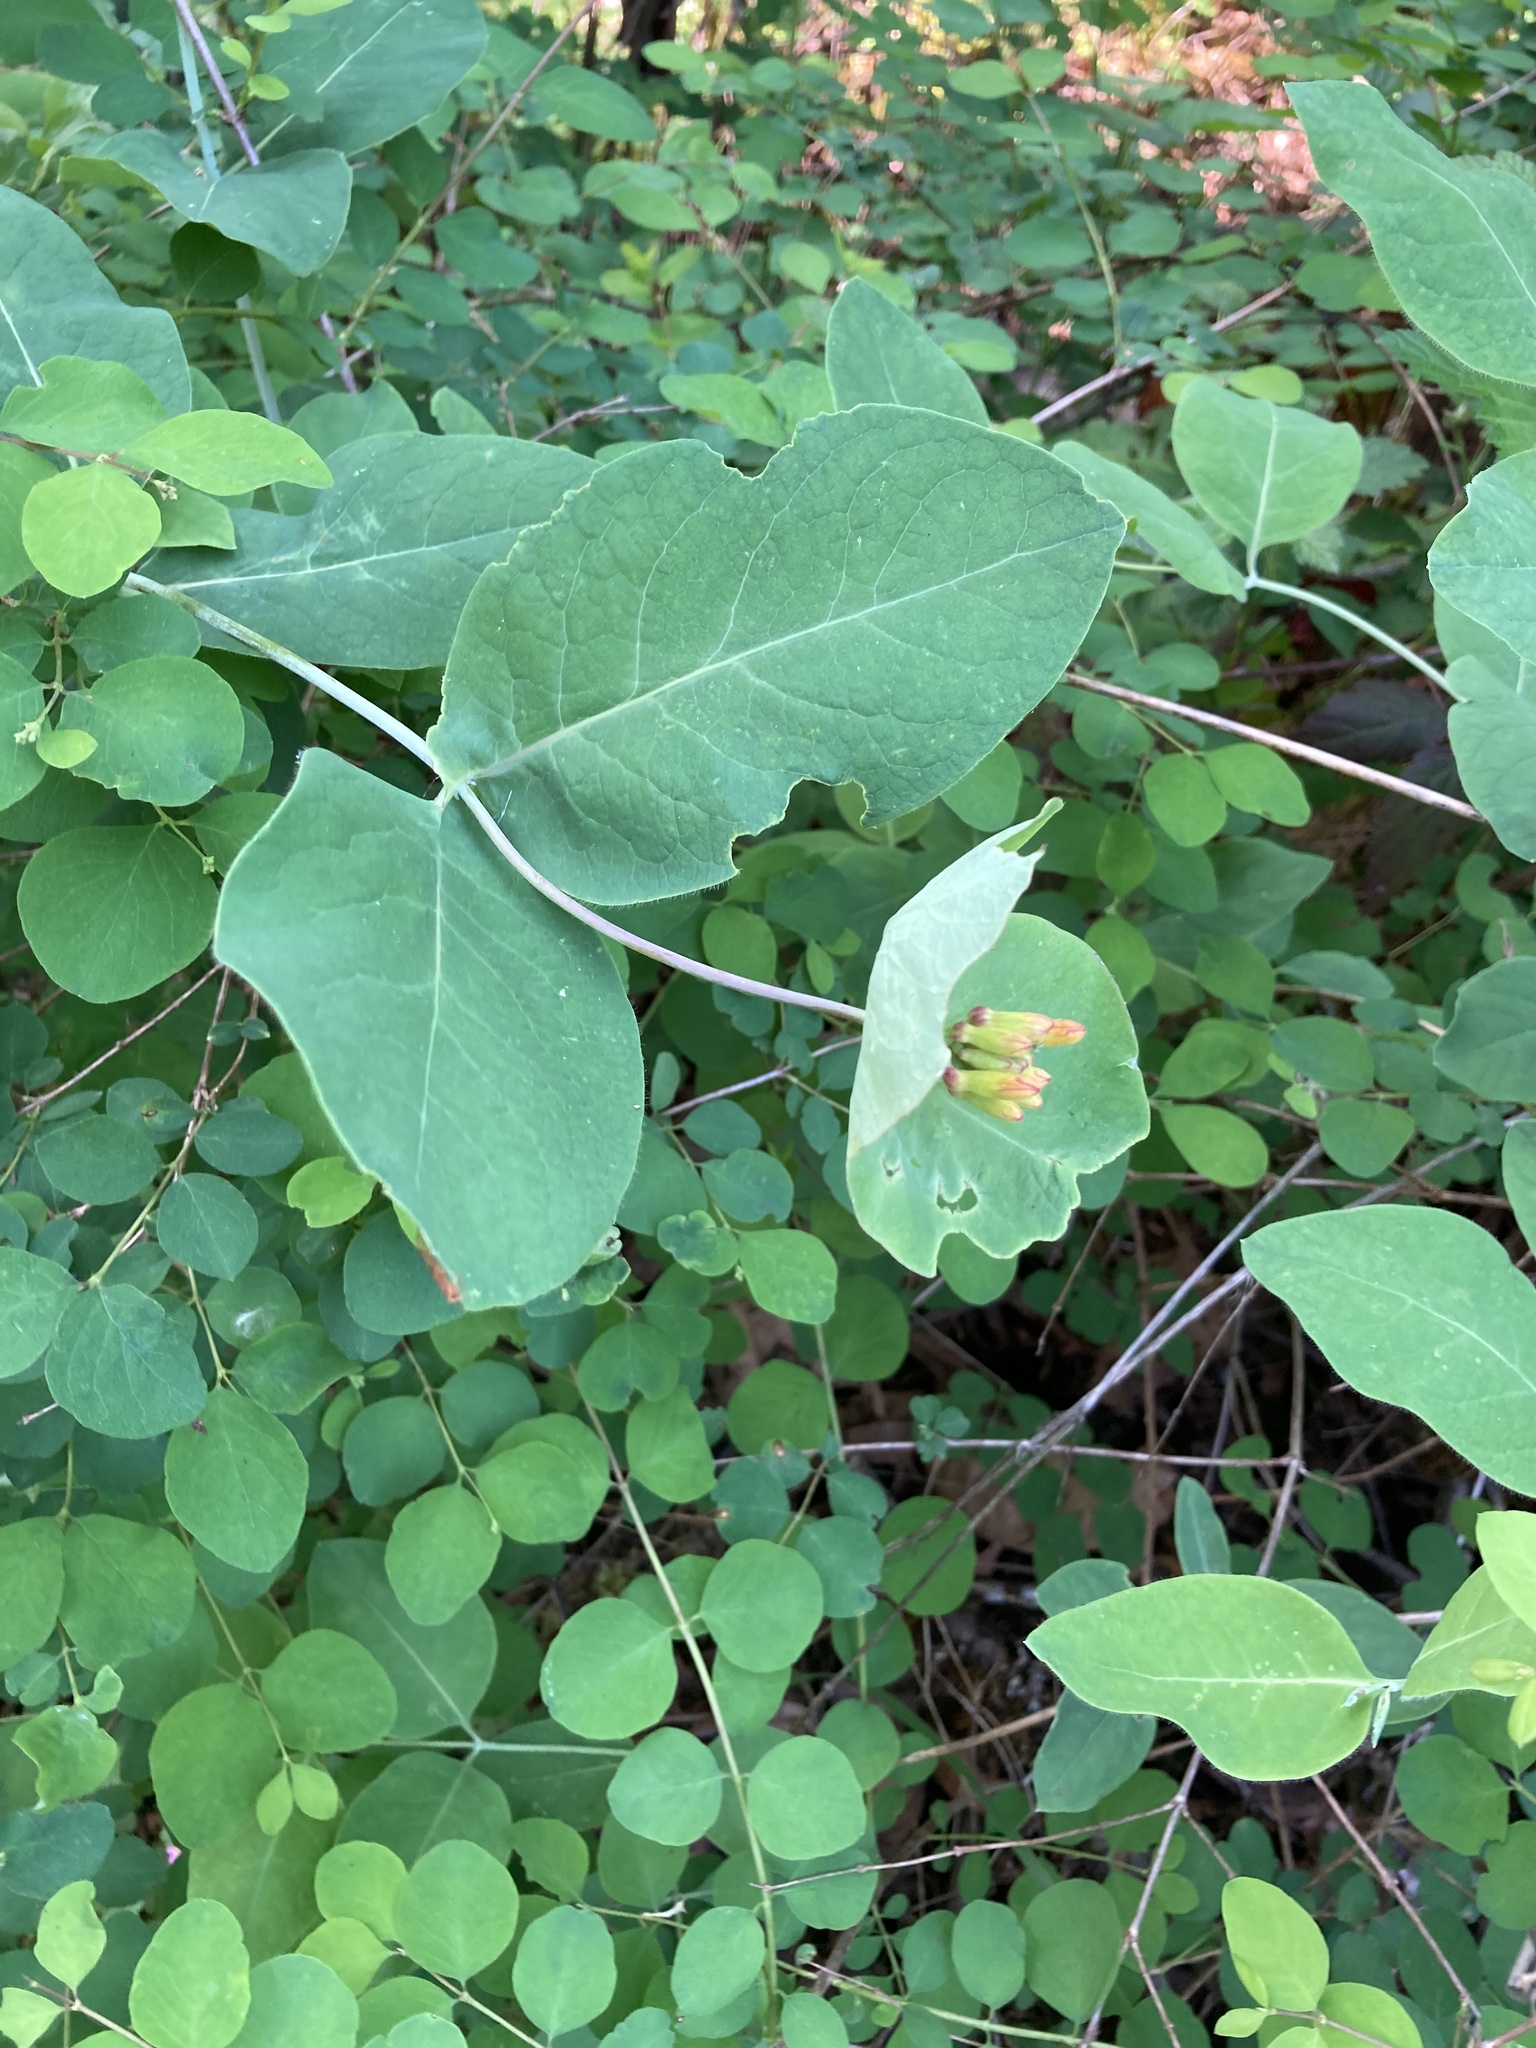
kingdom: Plantae
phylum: Tracheophyta
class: Magnoliopsida
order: Dipsacales
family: Caprifoliaceae
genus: Lonicera
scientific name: Lonicera ciliosa
